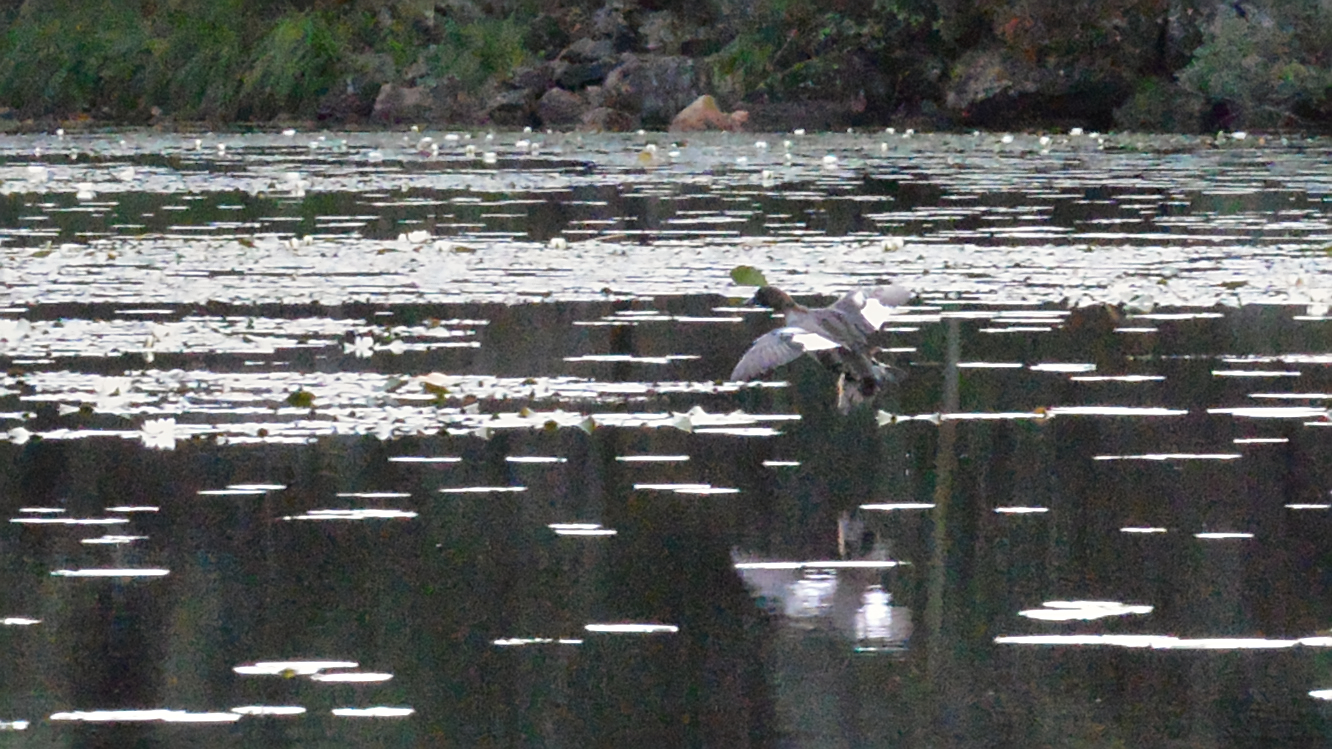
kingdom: Animalia
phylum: Chordata
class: Aves
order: Anseriformes
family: Anatidae
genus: Bucephala
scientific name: Bucephala clangula
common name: Common goldeneye
